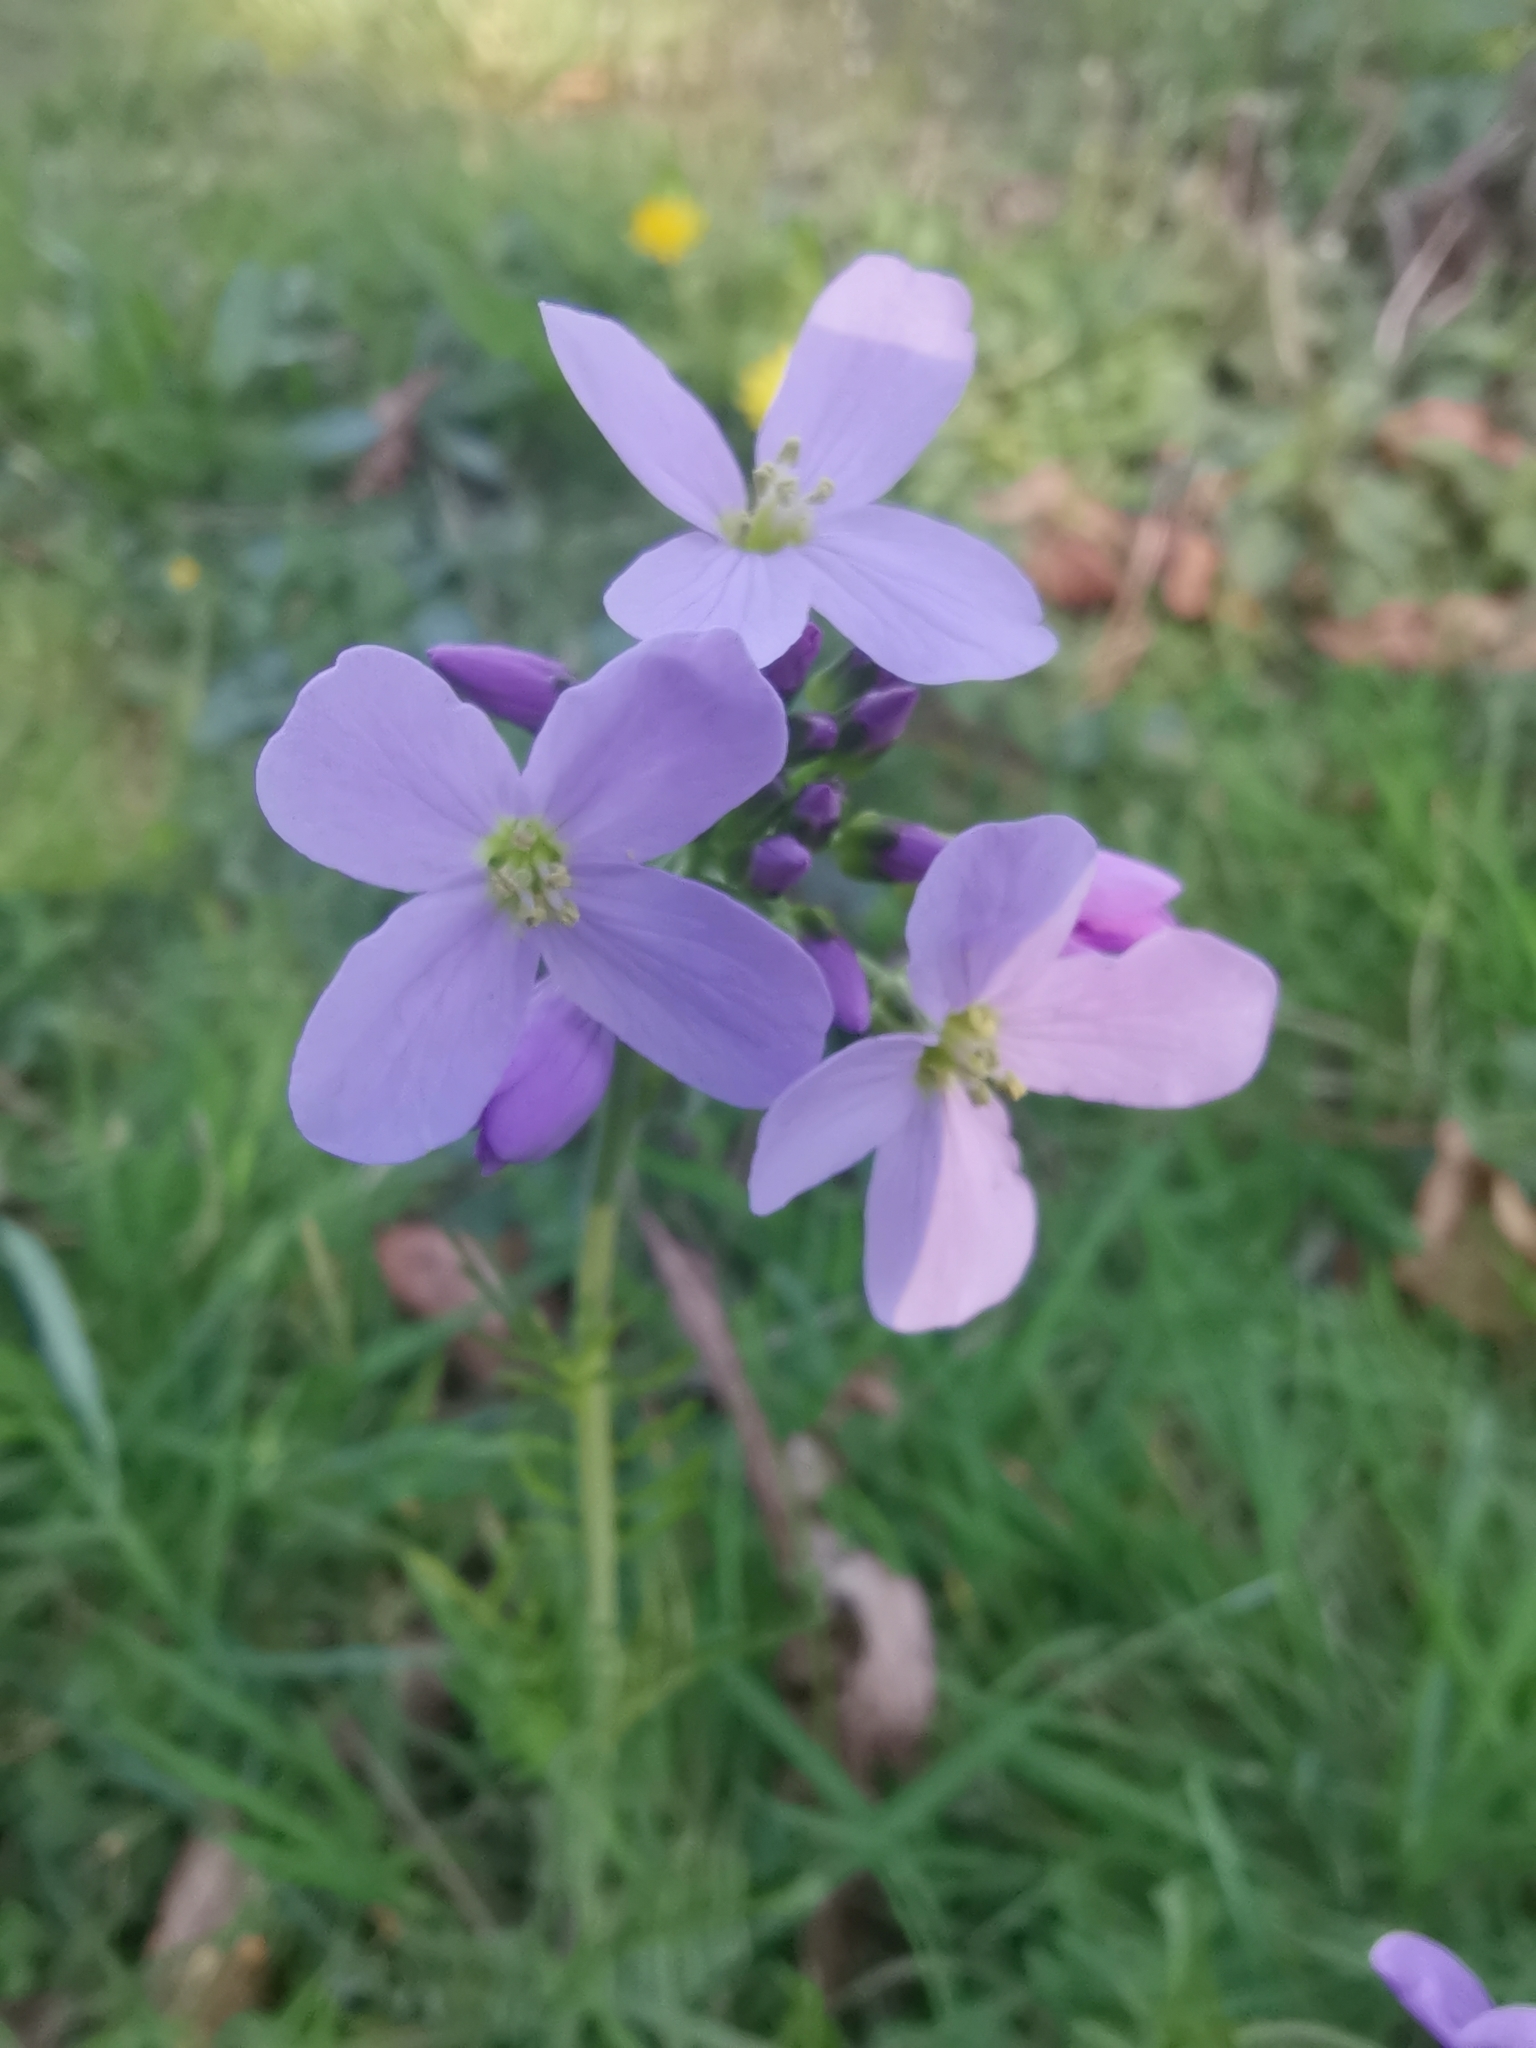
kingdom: Plantae
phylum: Tracheophyta
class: Magnoliopsida
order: Brassicales
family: Brassicaceae
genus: Cardamine
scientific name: Cardamine pratensis
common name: Cuckoo flower
